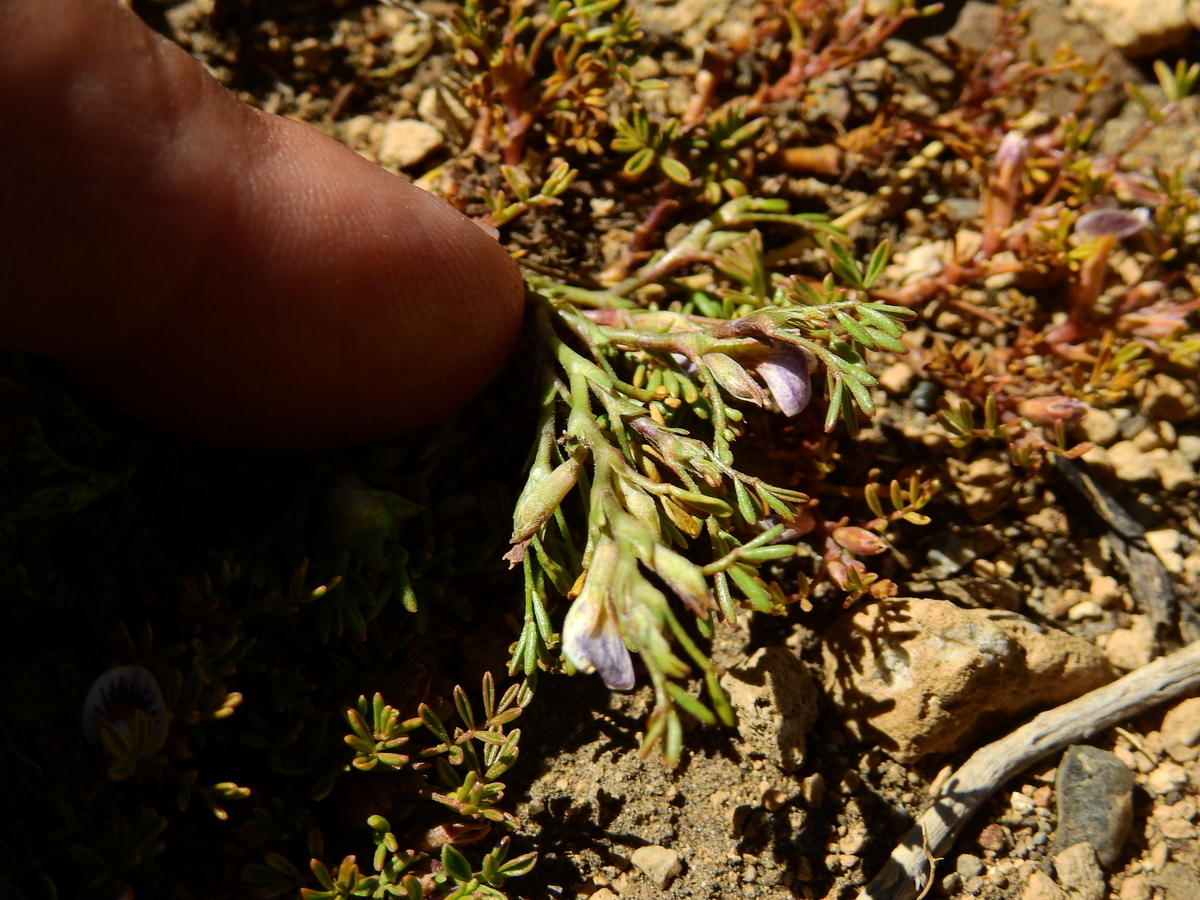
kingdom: Plantae
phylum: Tracheophyta
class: Magnoliopsida
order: Fabales
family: Fabaceae
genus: Adesmia
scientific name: Adesmia parvifolia
